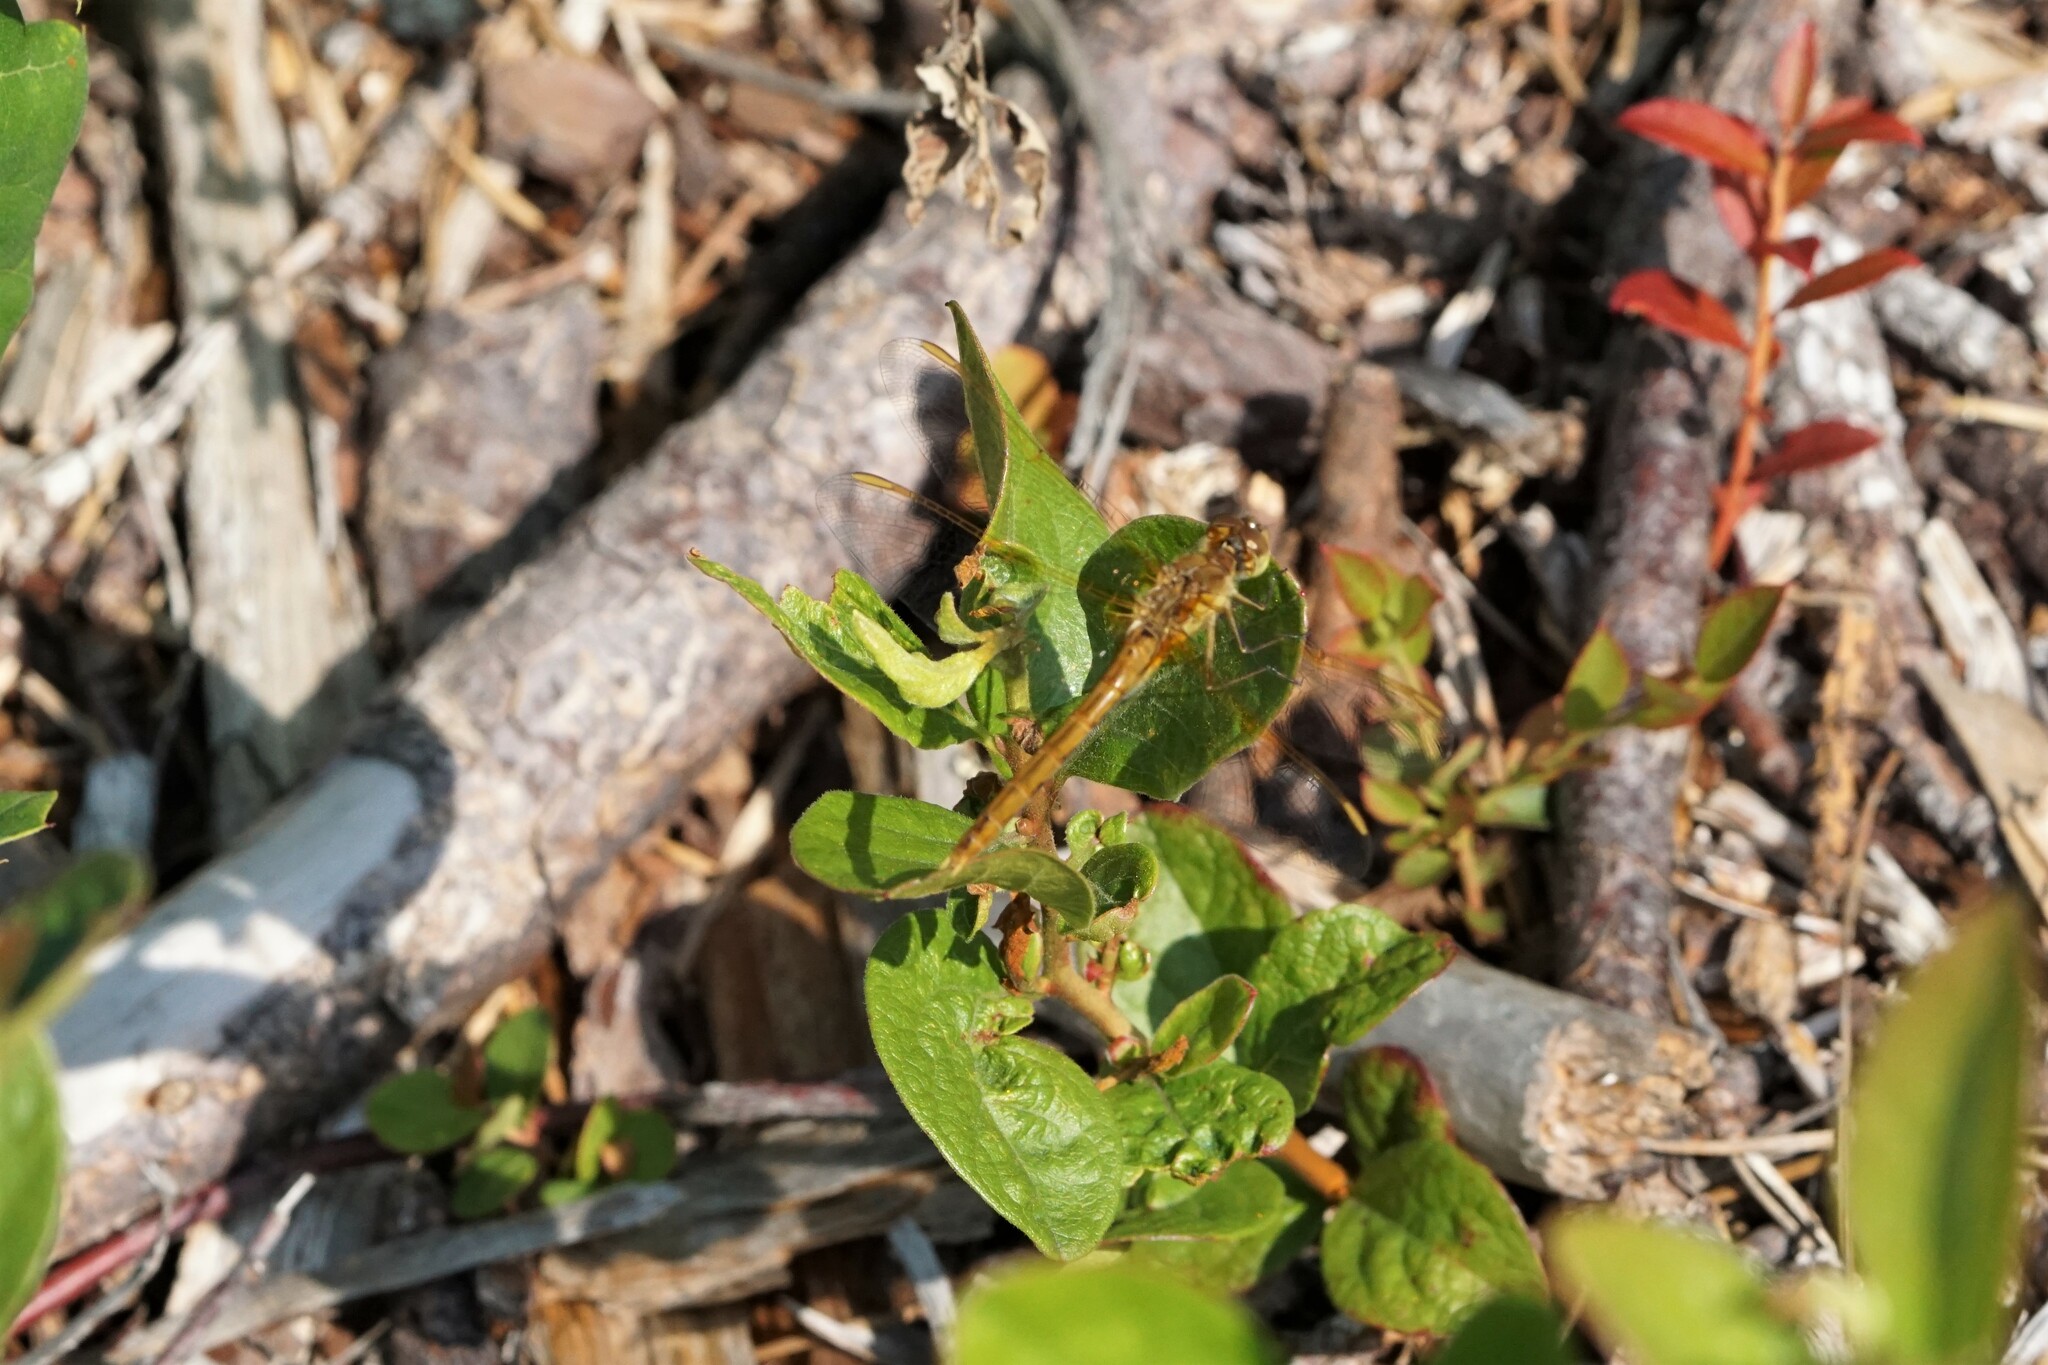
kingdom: Animalia
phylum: Arthropoda
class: Insecta
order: Odonata
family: Libellulidae
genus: Sympetrum
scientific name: Sympetrum costiferum
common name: Saffron-winged meadowhawk
